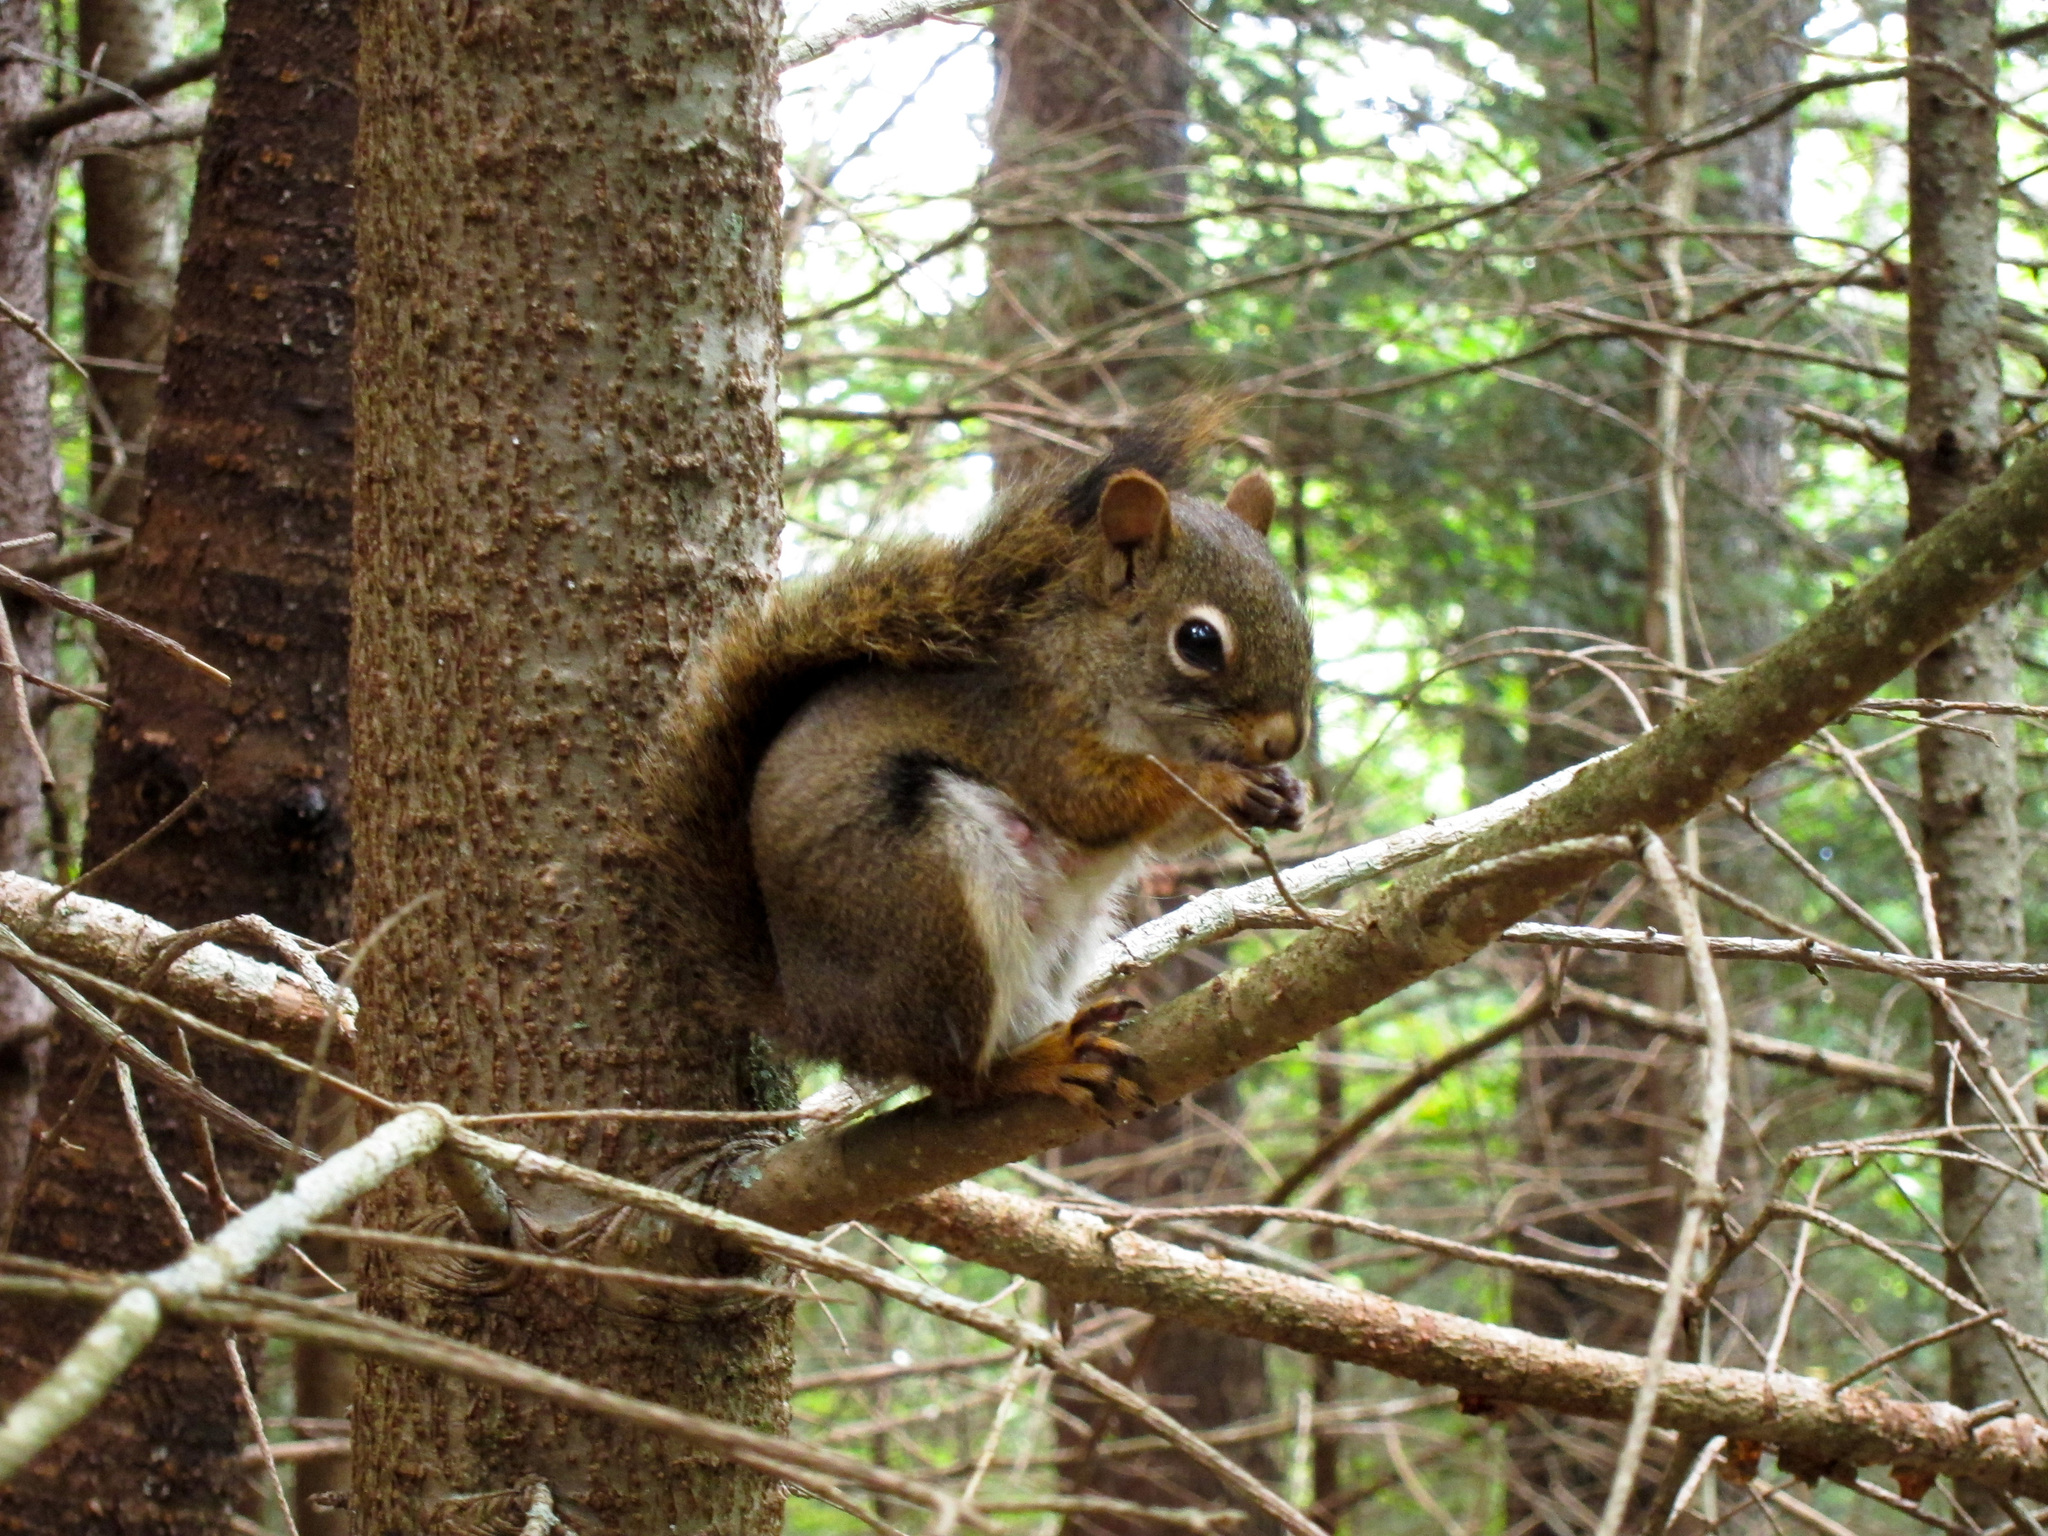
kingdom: Animalia
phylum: Chordata
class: Mammalia
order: Rodentia
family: Sciuridae
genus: Tamiasciurus
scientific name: Tamiasciurus hudsonicus
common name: Red squirrel
